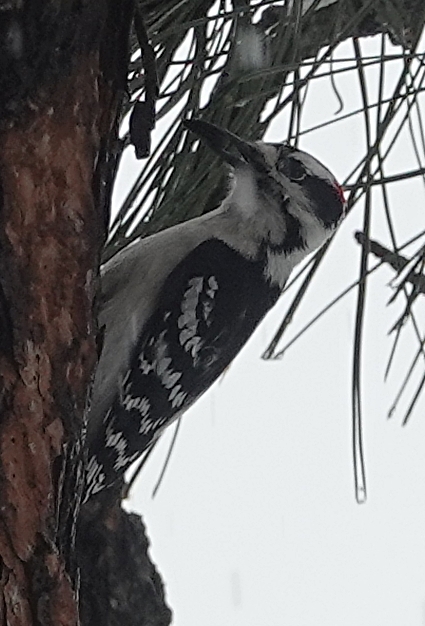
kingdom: Animalia
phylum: Chordata
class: Aves
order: Piciformes
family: Picidae
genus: Leuconotopicus
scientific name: Leuconotopicus villosus
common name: Hairy woodpecker
